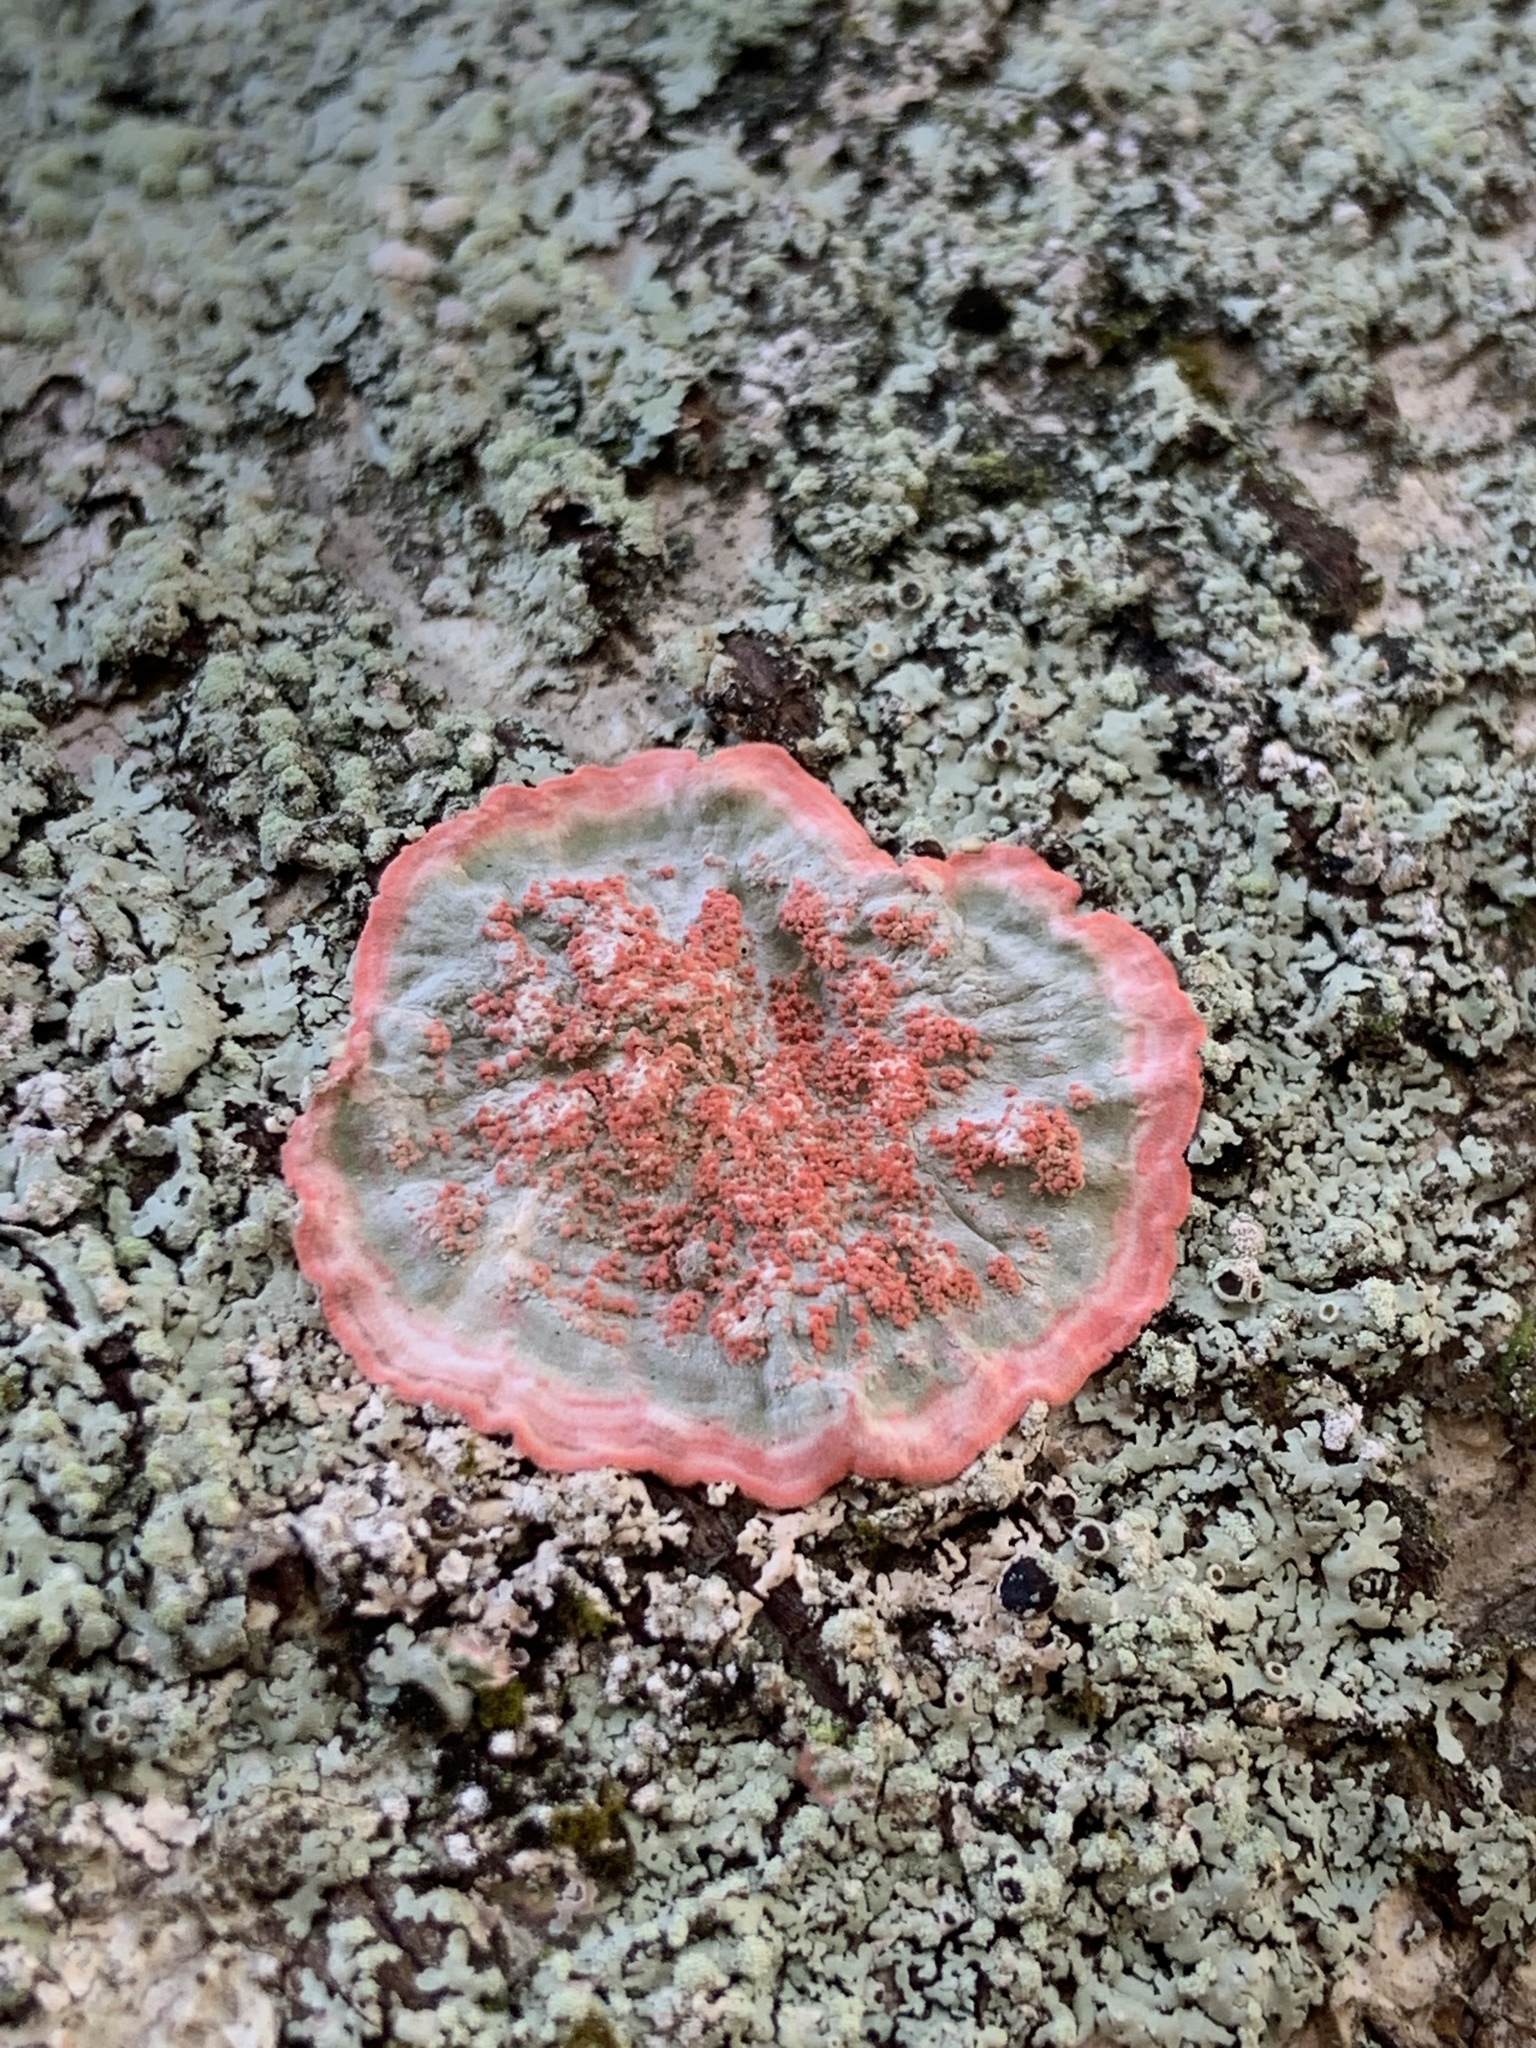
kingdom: Fungi
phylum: Ascomycota
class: Arthoniomycetes
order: Arthoniales
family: Arthoniaceae
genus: Herpothallon
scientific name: Herpothallon rubrocinctum
